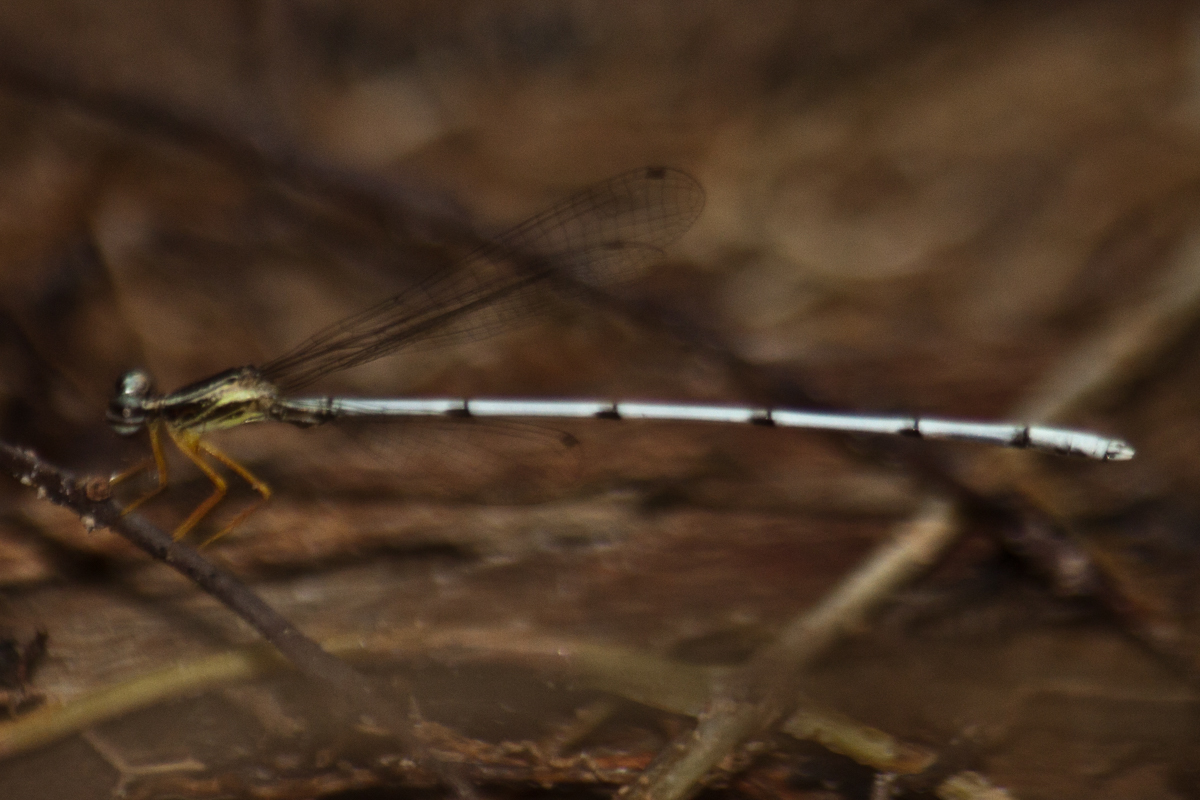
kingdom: Animalia
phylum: Arthropoda
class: Insecta
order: Odonata
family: Platycnemididae
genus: Copera
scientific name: Copera vittata
